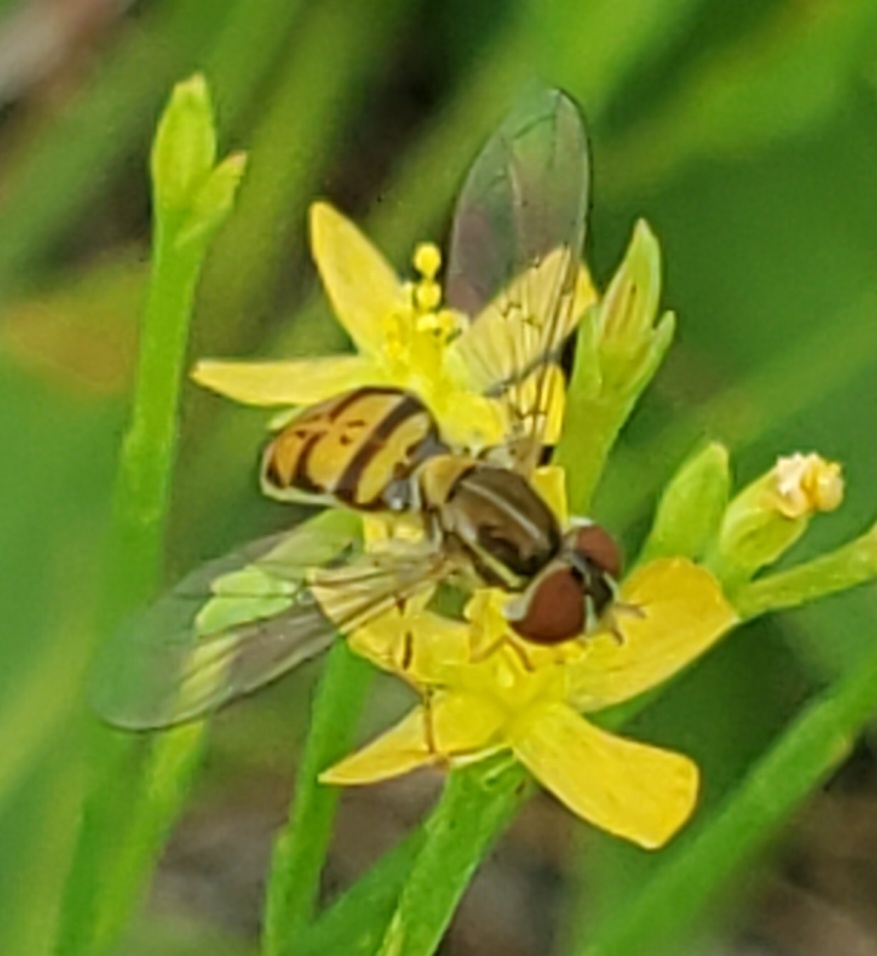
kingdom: Animalia
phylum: Arthropoda
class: Insecta
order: Diptera
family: Syrphidae
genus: Toxomerus
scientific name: Toxomerus marginatus
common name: Syrphid fly
